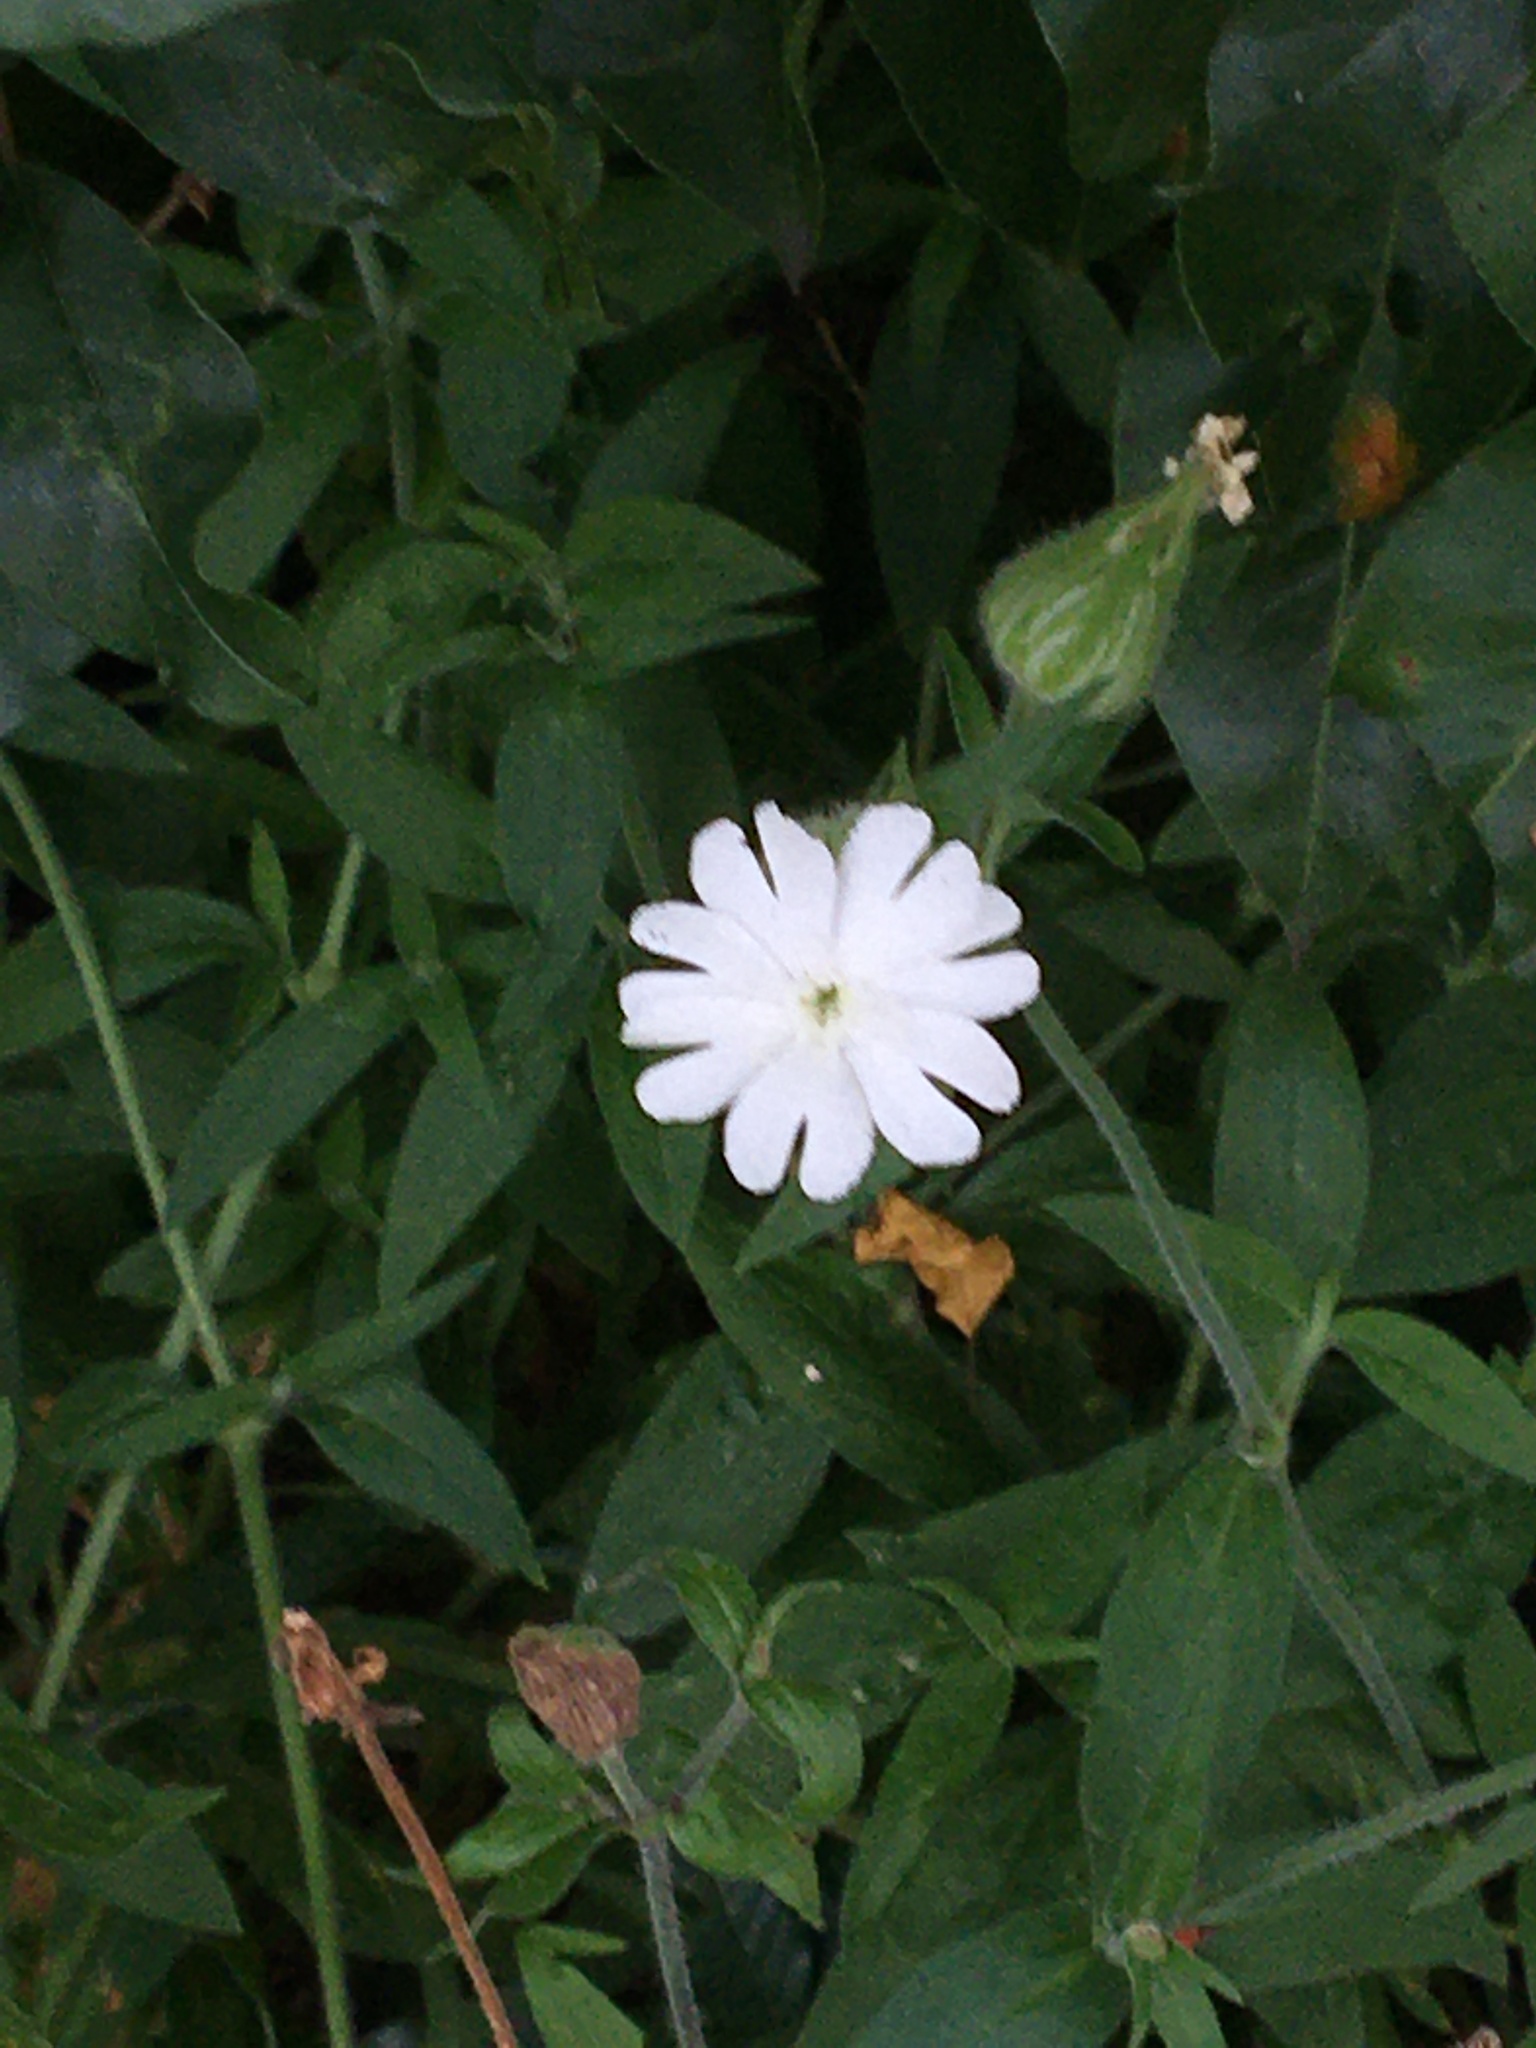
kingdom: Plantae
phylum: Tracheophyta
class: Magnoliopsida
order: Caryophyllales
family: Caryophyllaceae
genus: Silene
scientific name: Silene latifolia
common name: White campion
